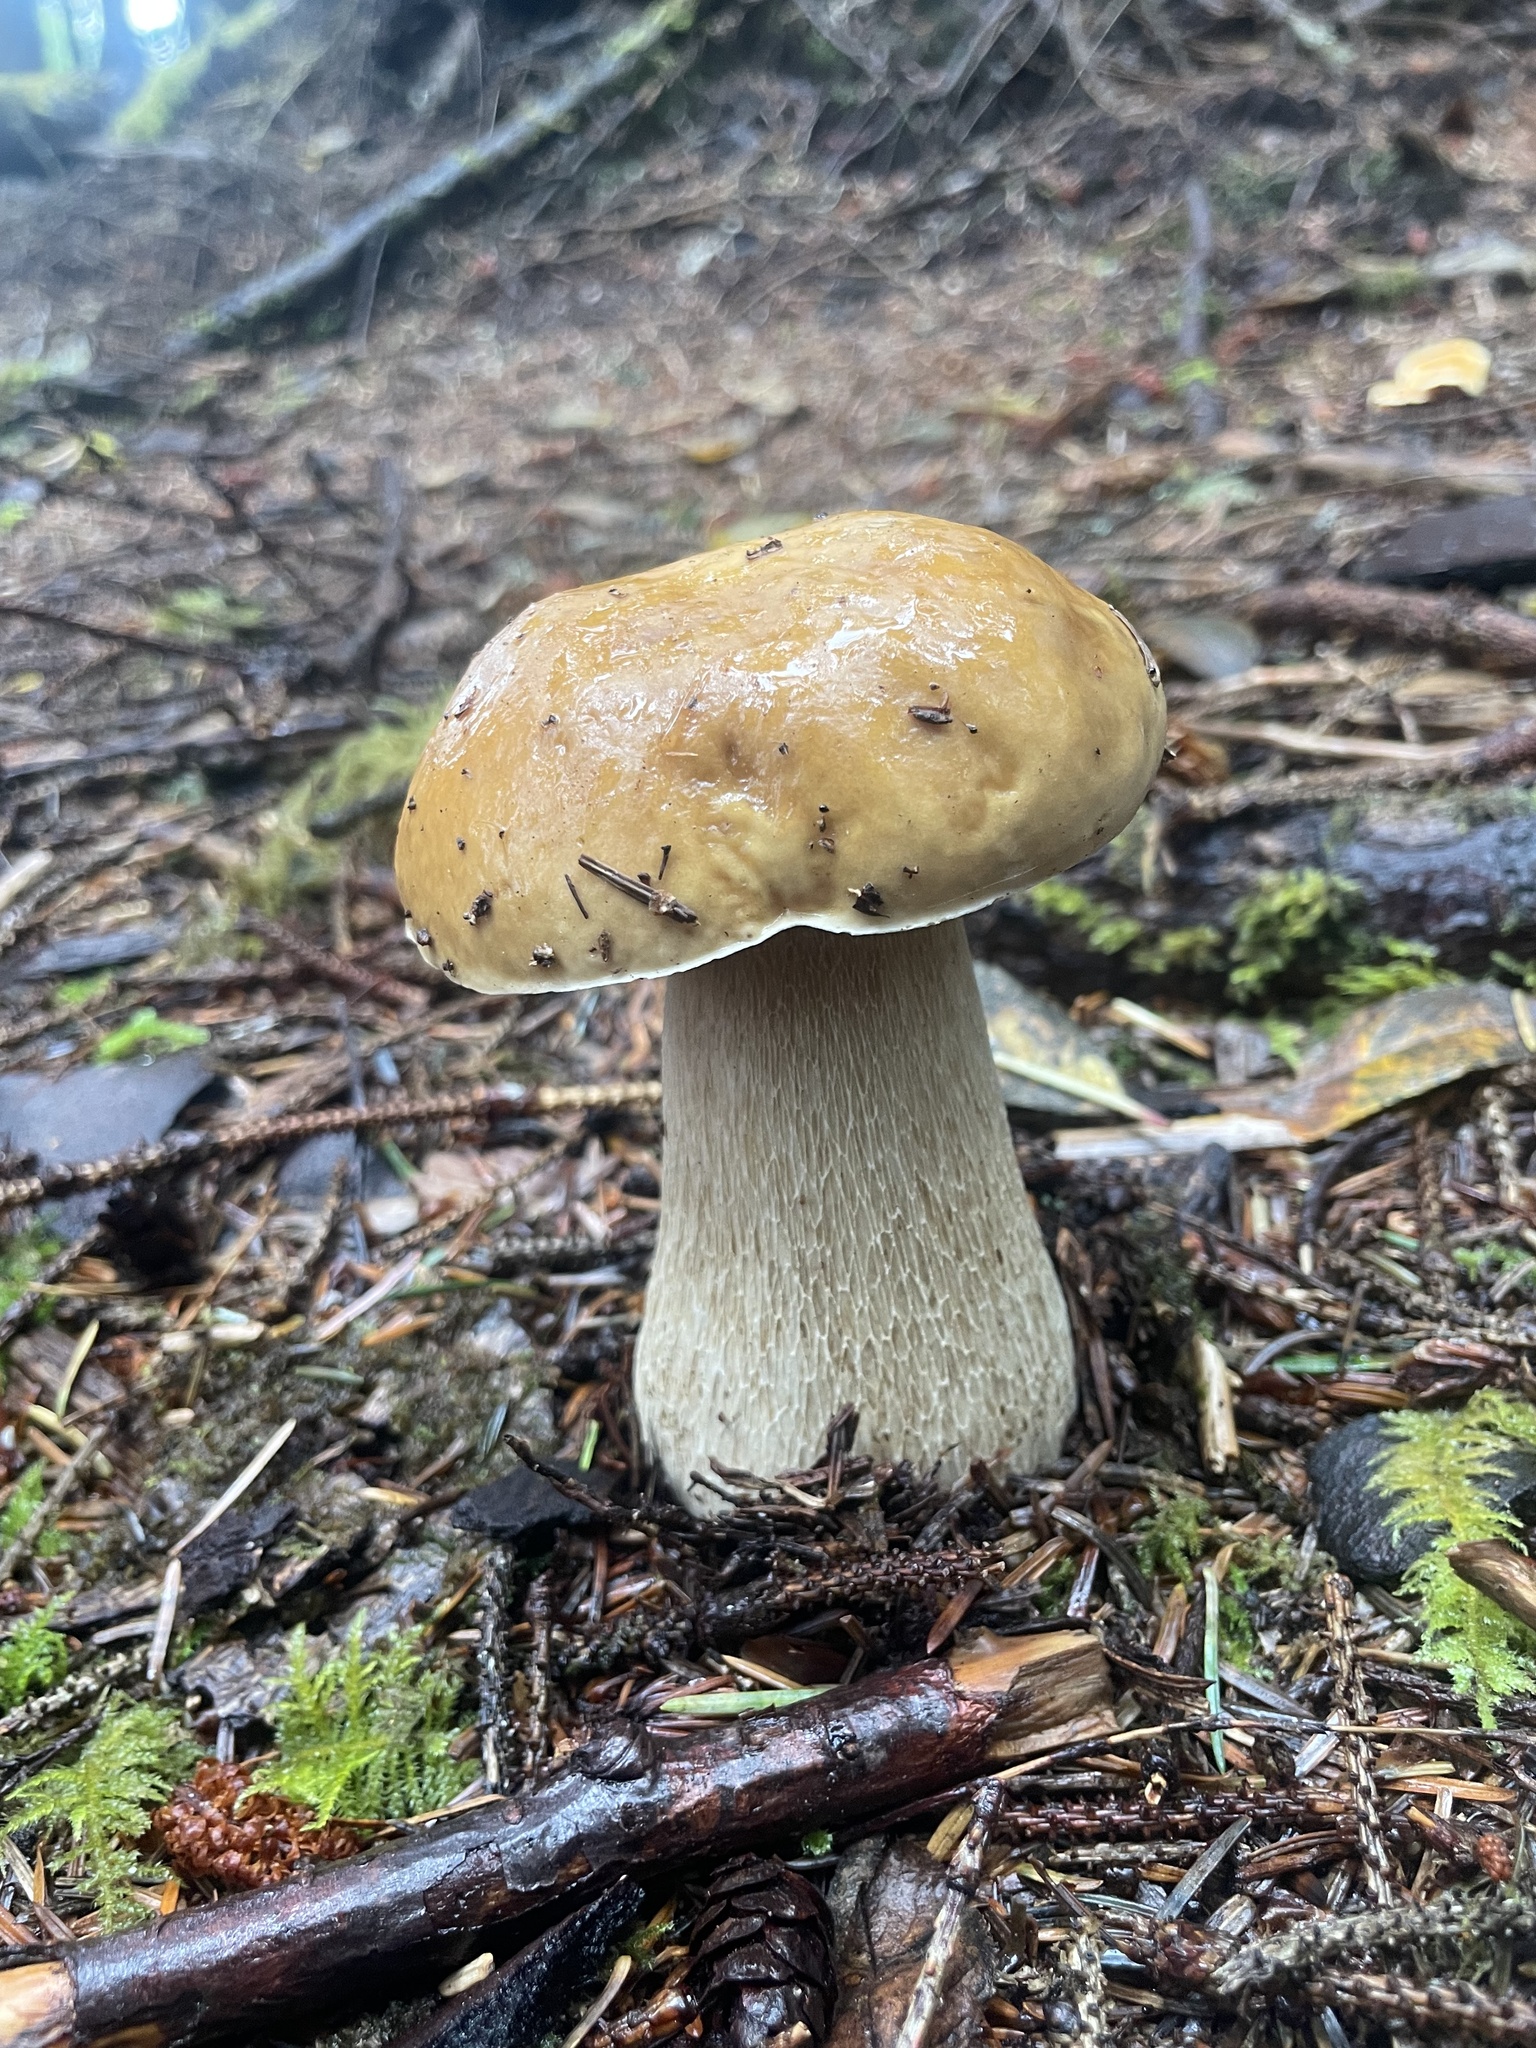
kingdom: Fungi
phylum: Basidiomycota
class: Agaricomycetes
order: Boletales
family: Boletaceae
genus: Boletus
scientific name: Boletus edulis
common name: Cep
